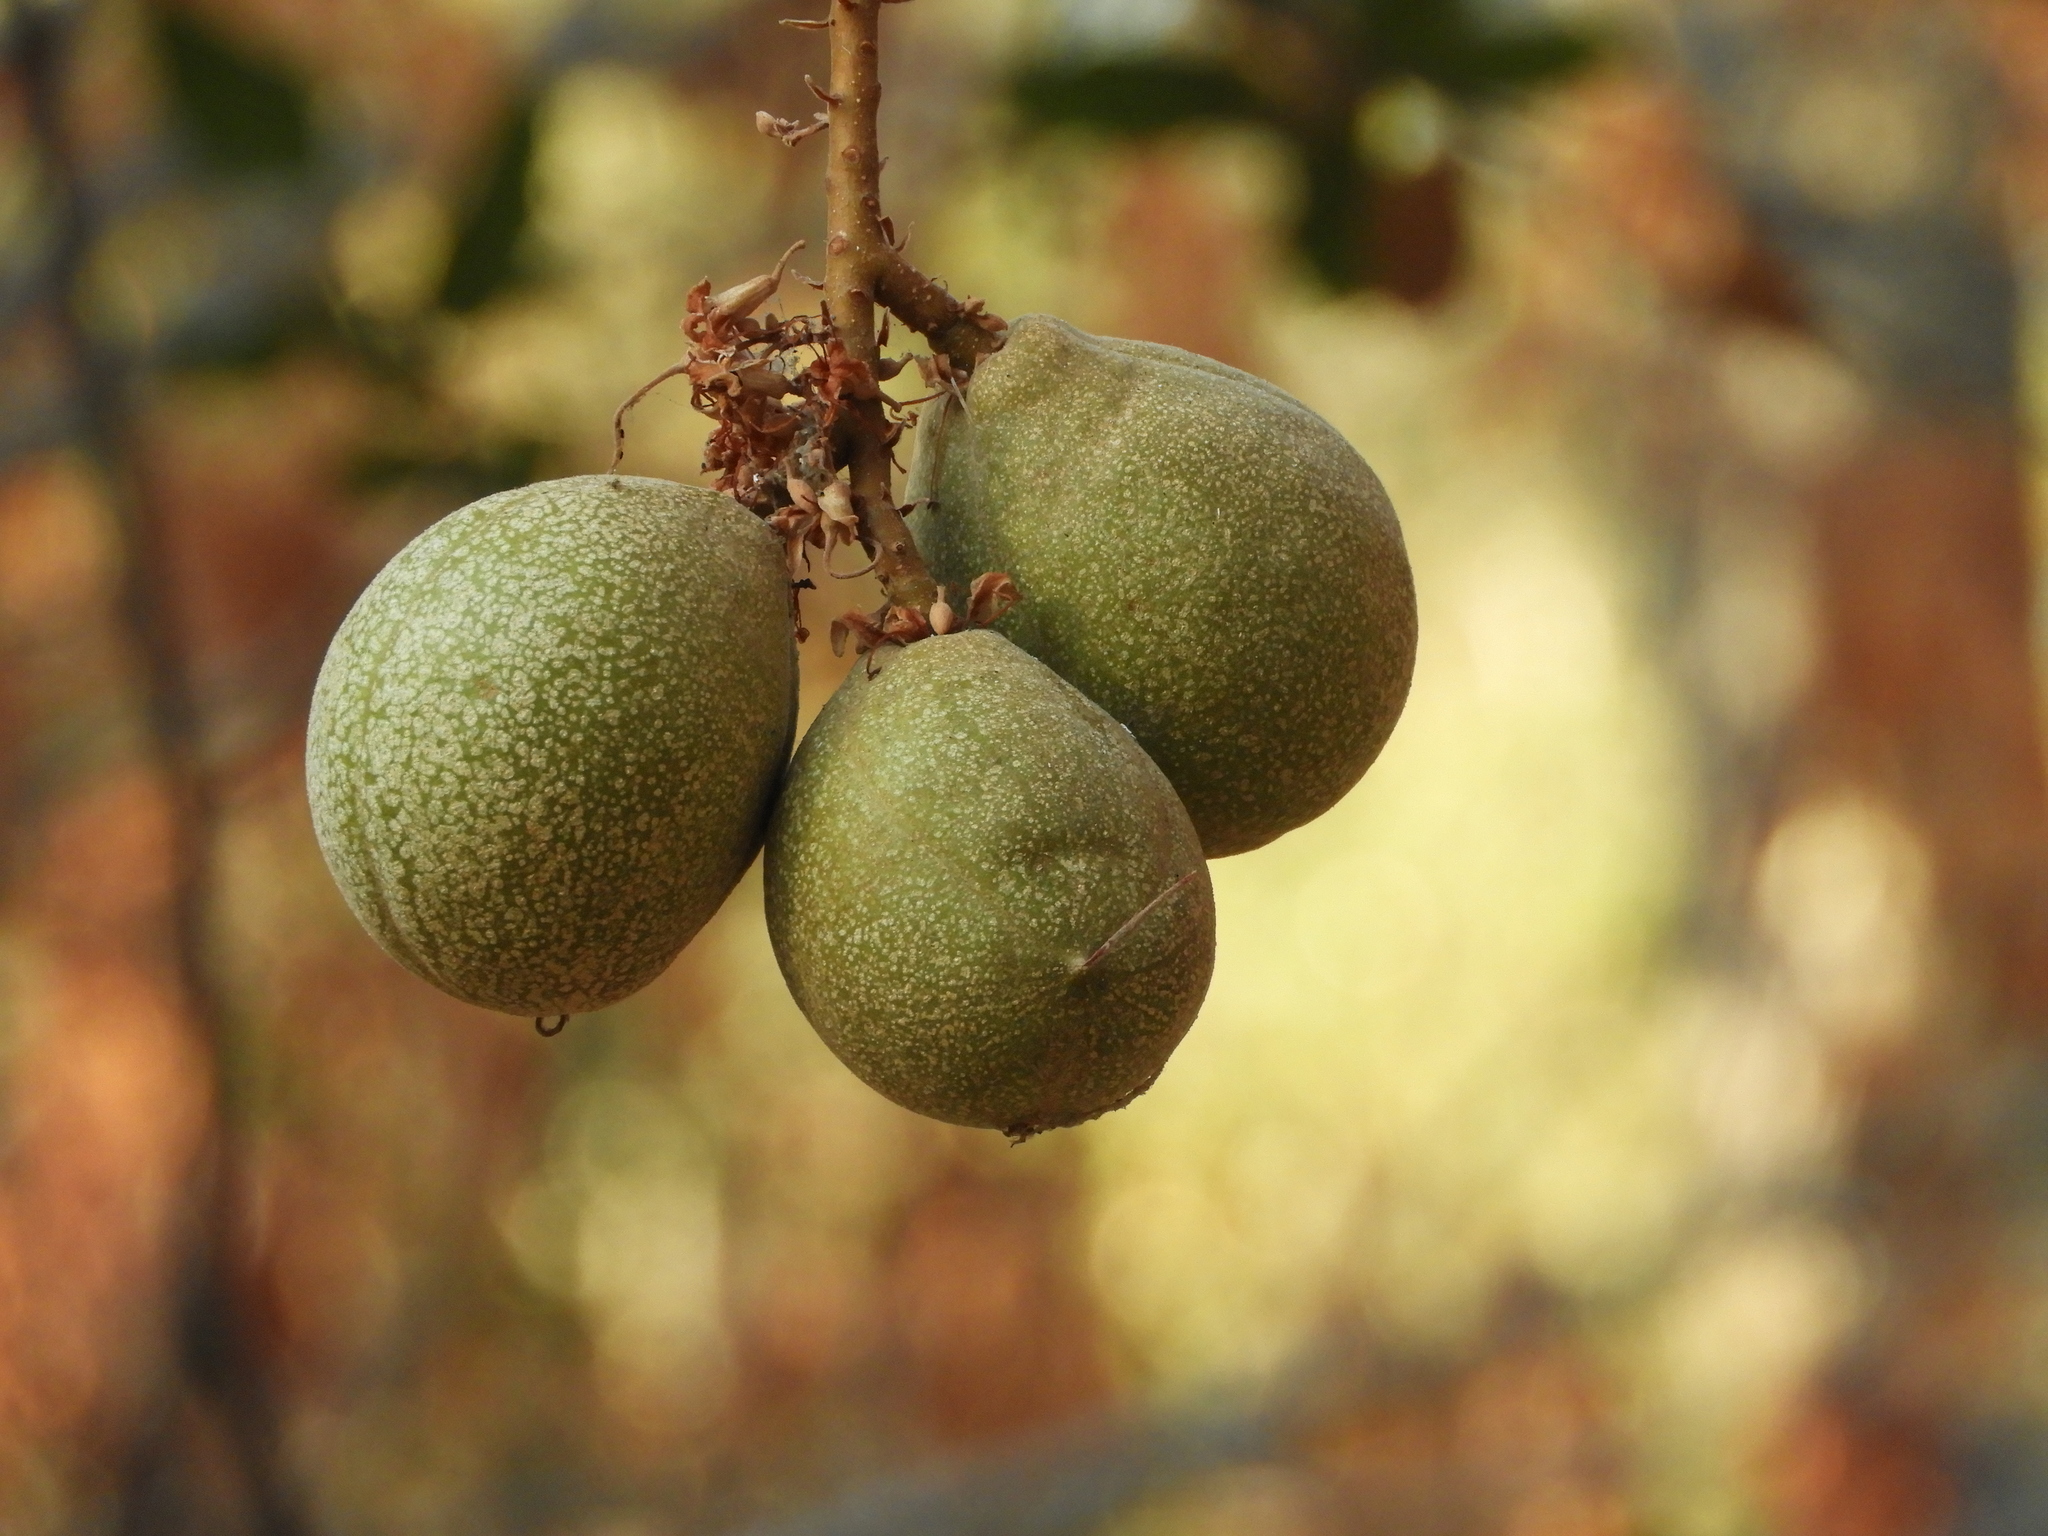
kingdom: Plantae
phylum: Tracheophyta
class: Magnoliopsida
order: Sapindales
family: Sapindaceae
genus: Aesculus
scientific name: Aesculus californica
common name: California buckeye
